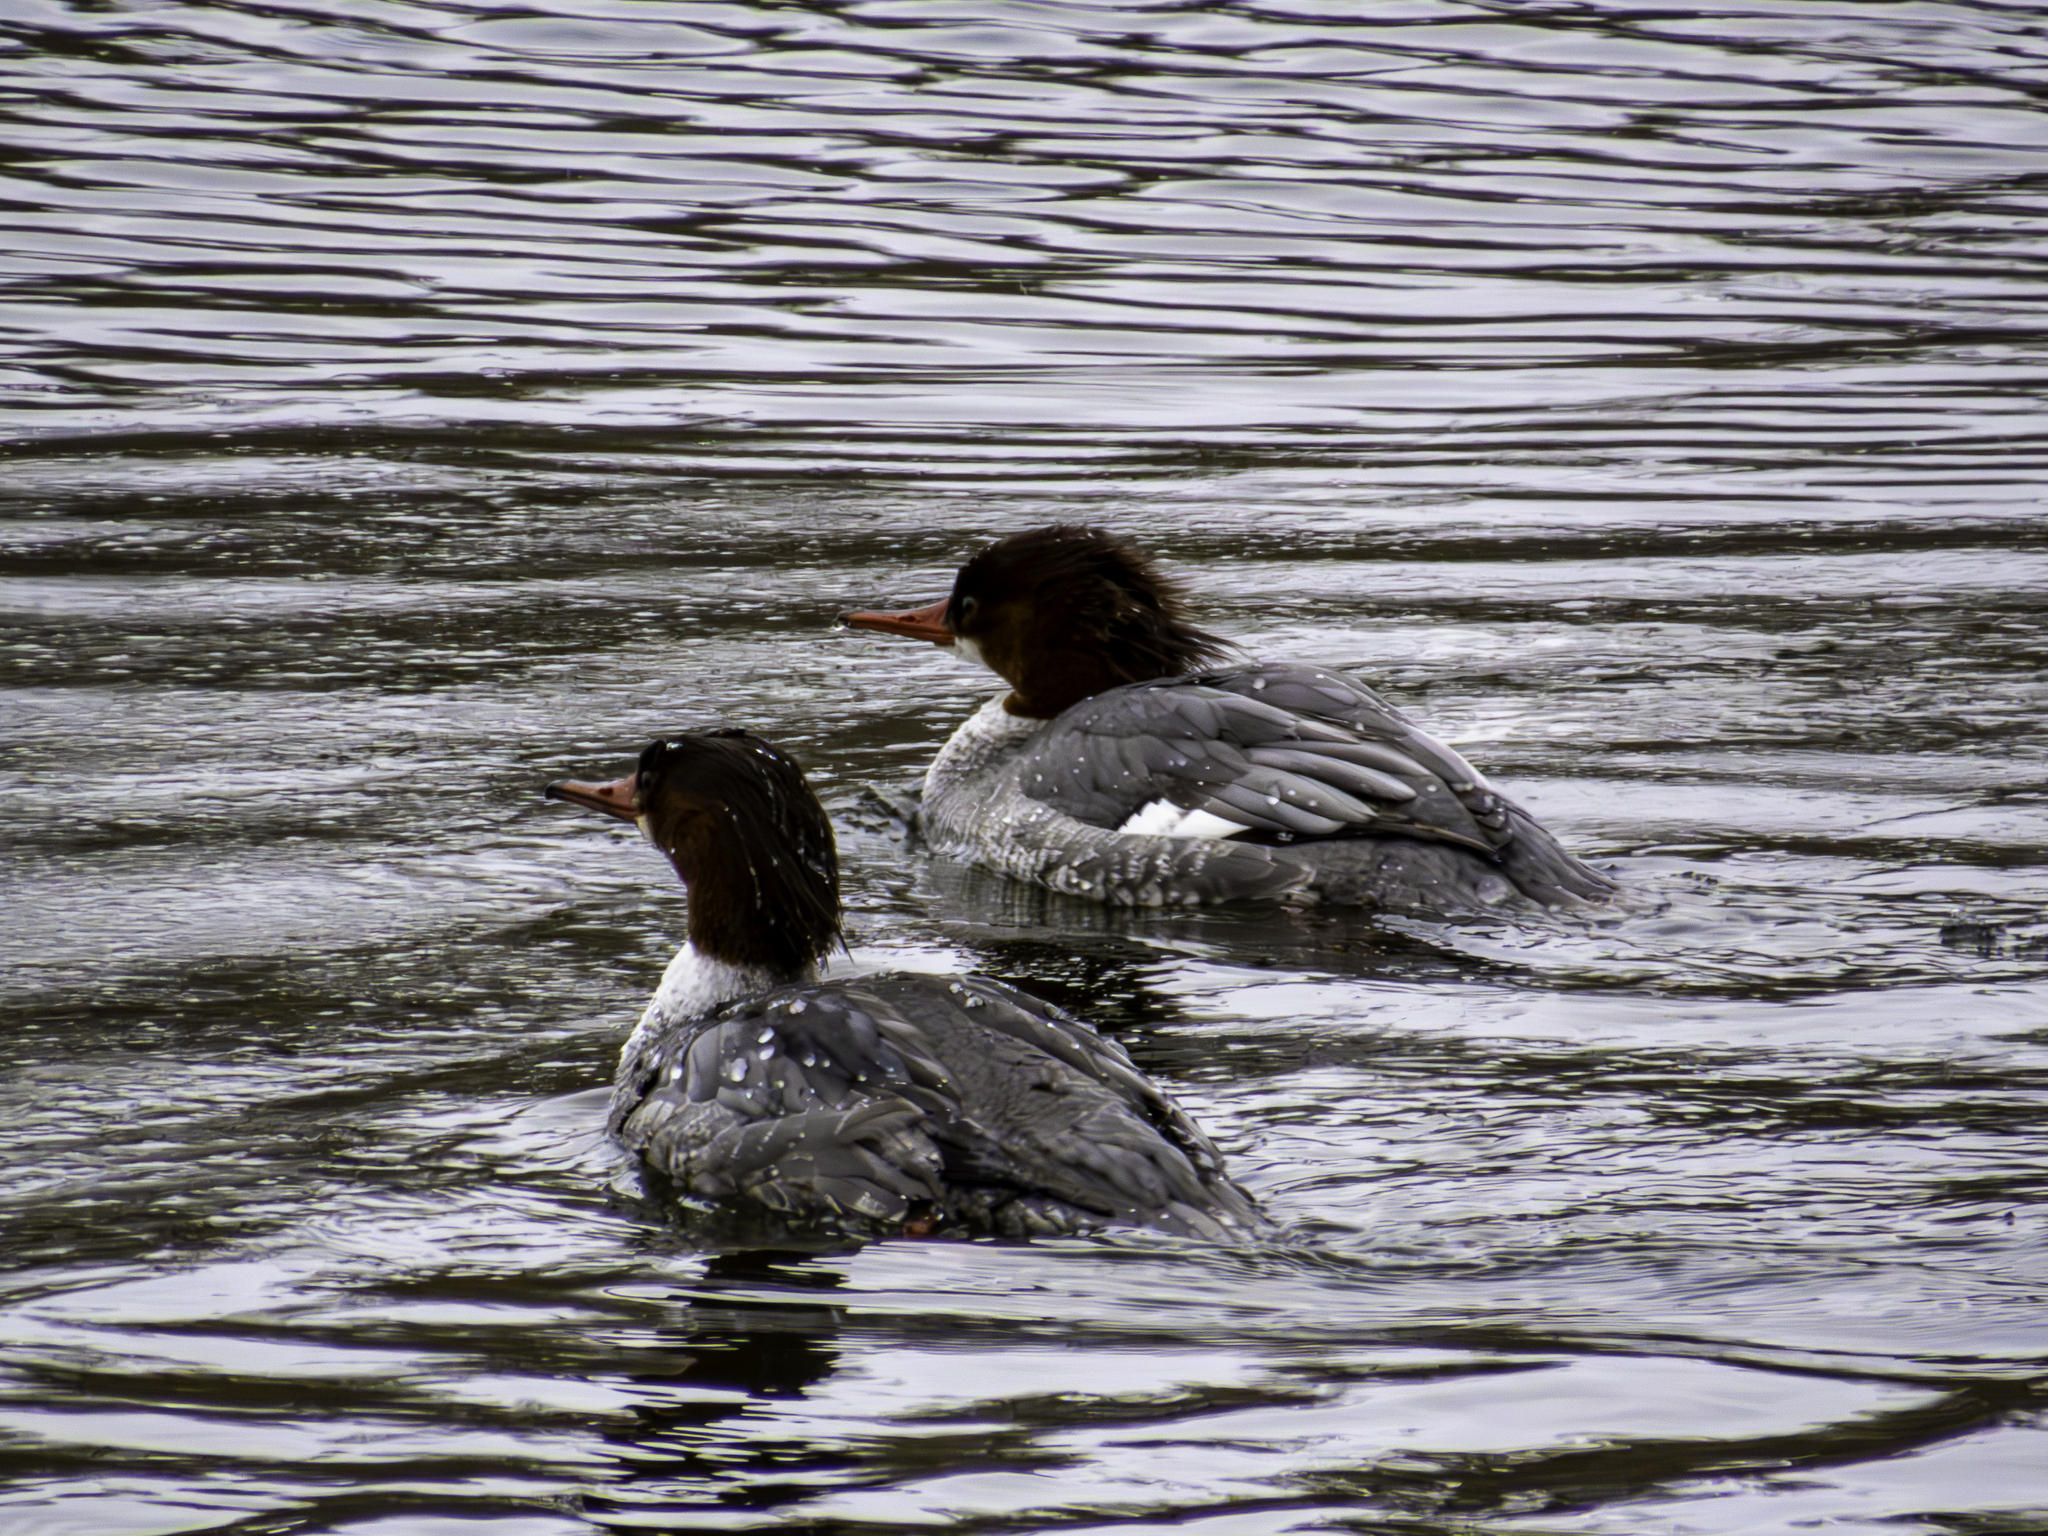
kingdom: Animalia
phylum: Chordata
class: Aves
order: Anseriformes
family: Anatidae
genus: Mergus
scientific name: Mergus merganser
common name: Common merganser
